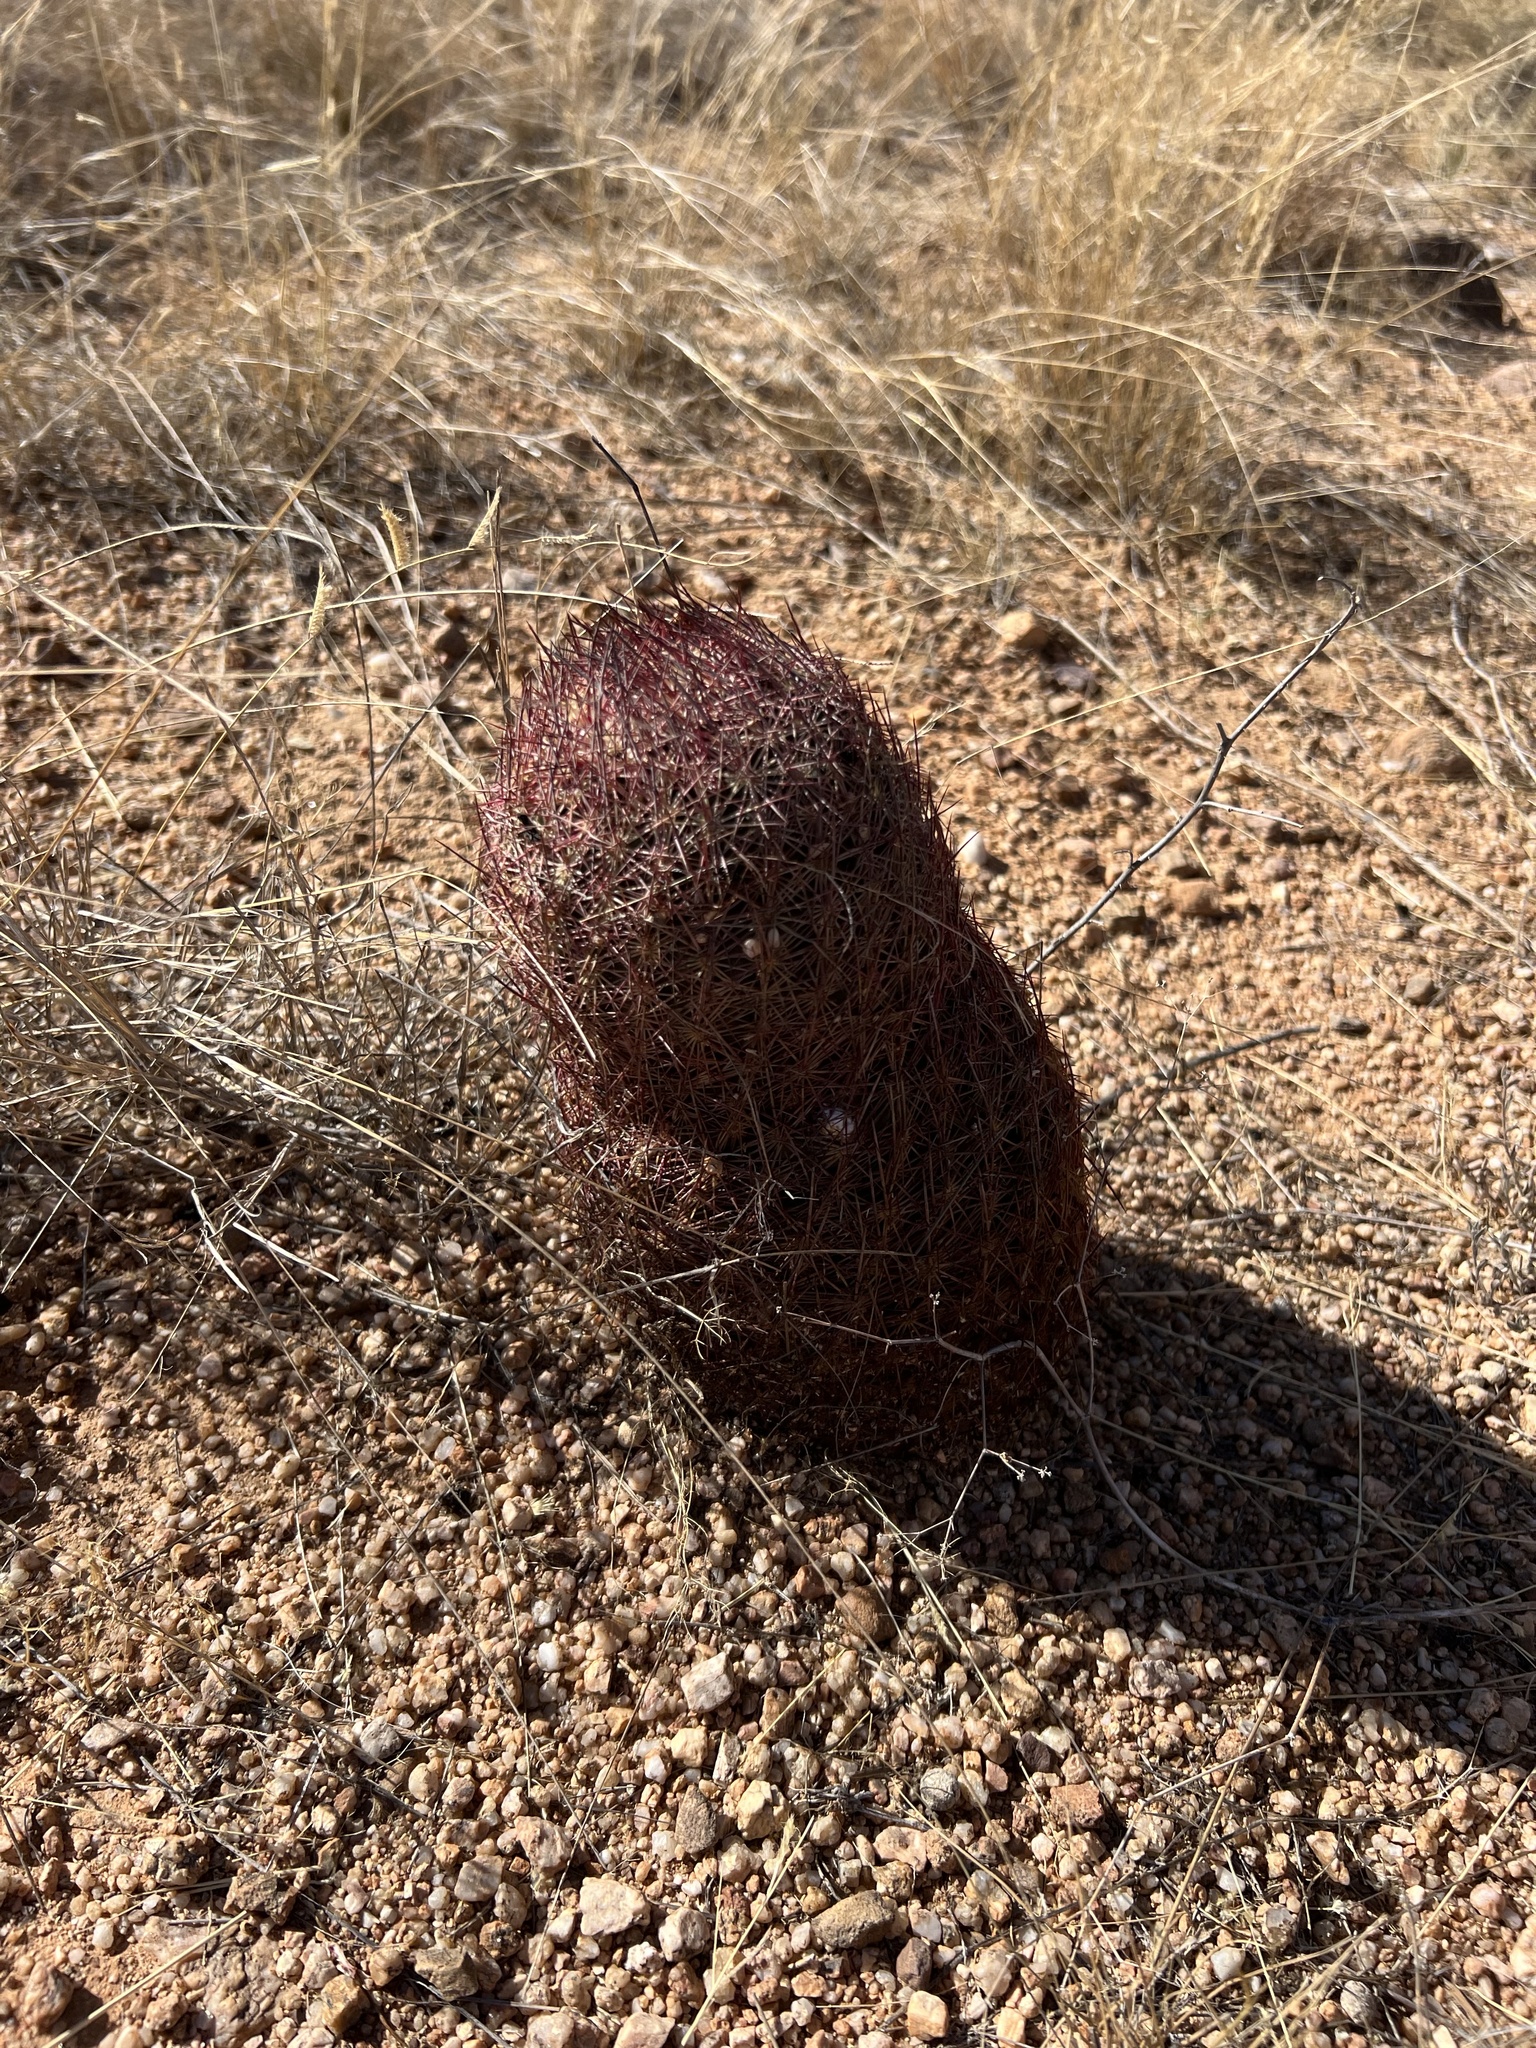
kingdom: Plantae
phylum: Tracheophyta
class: Magnoliopsida
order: Caryophyllales
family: Cactaceae
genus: Sclerocactus
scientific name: Sclerocactus johnsonii
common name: Eight-spine fishhook cactus
